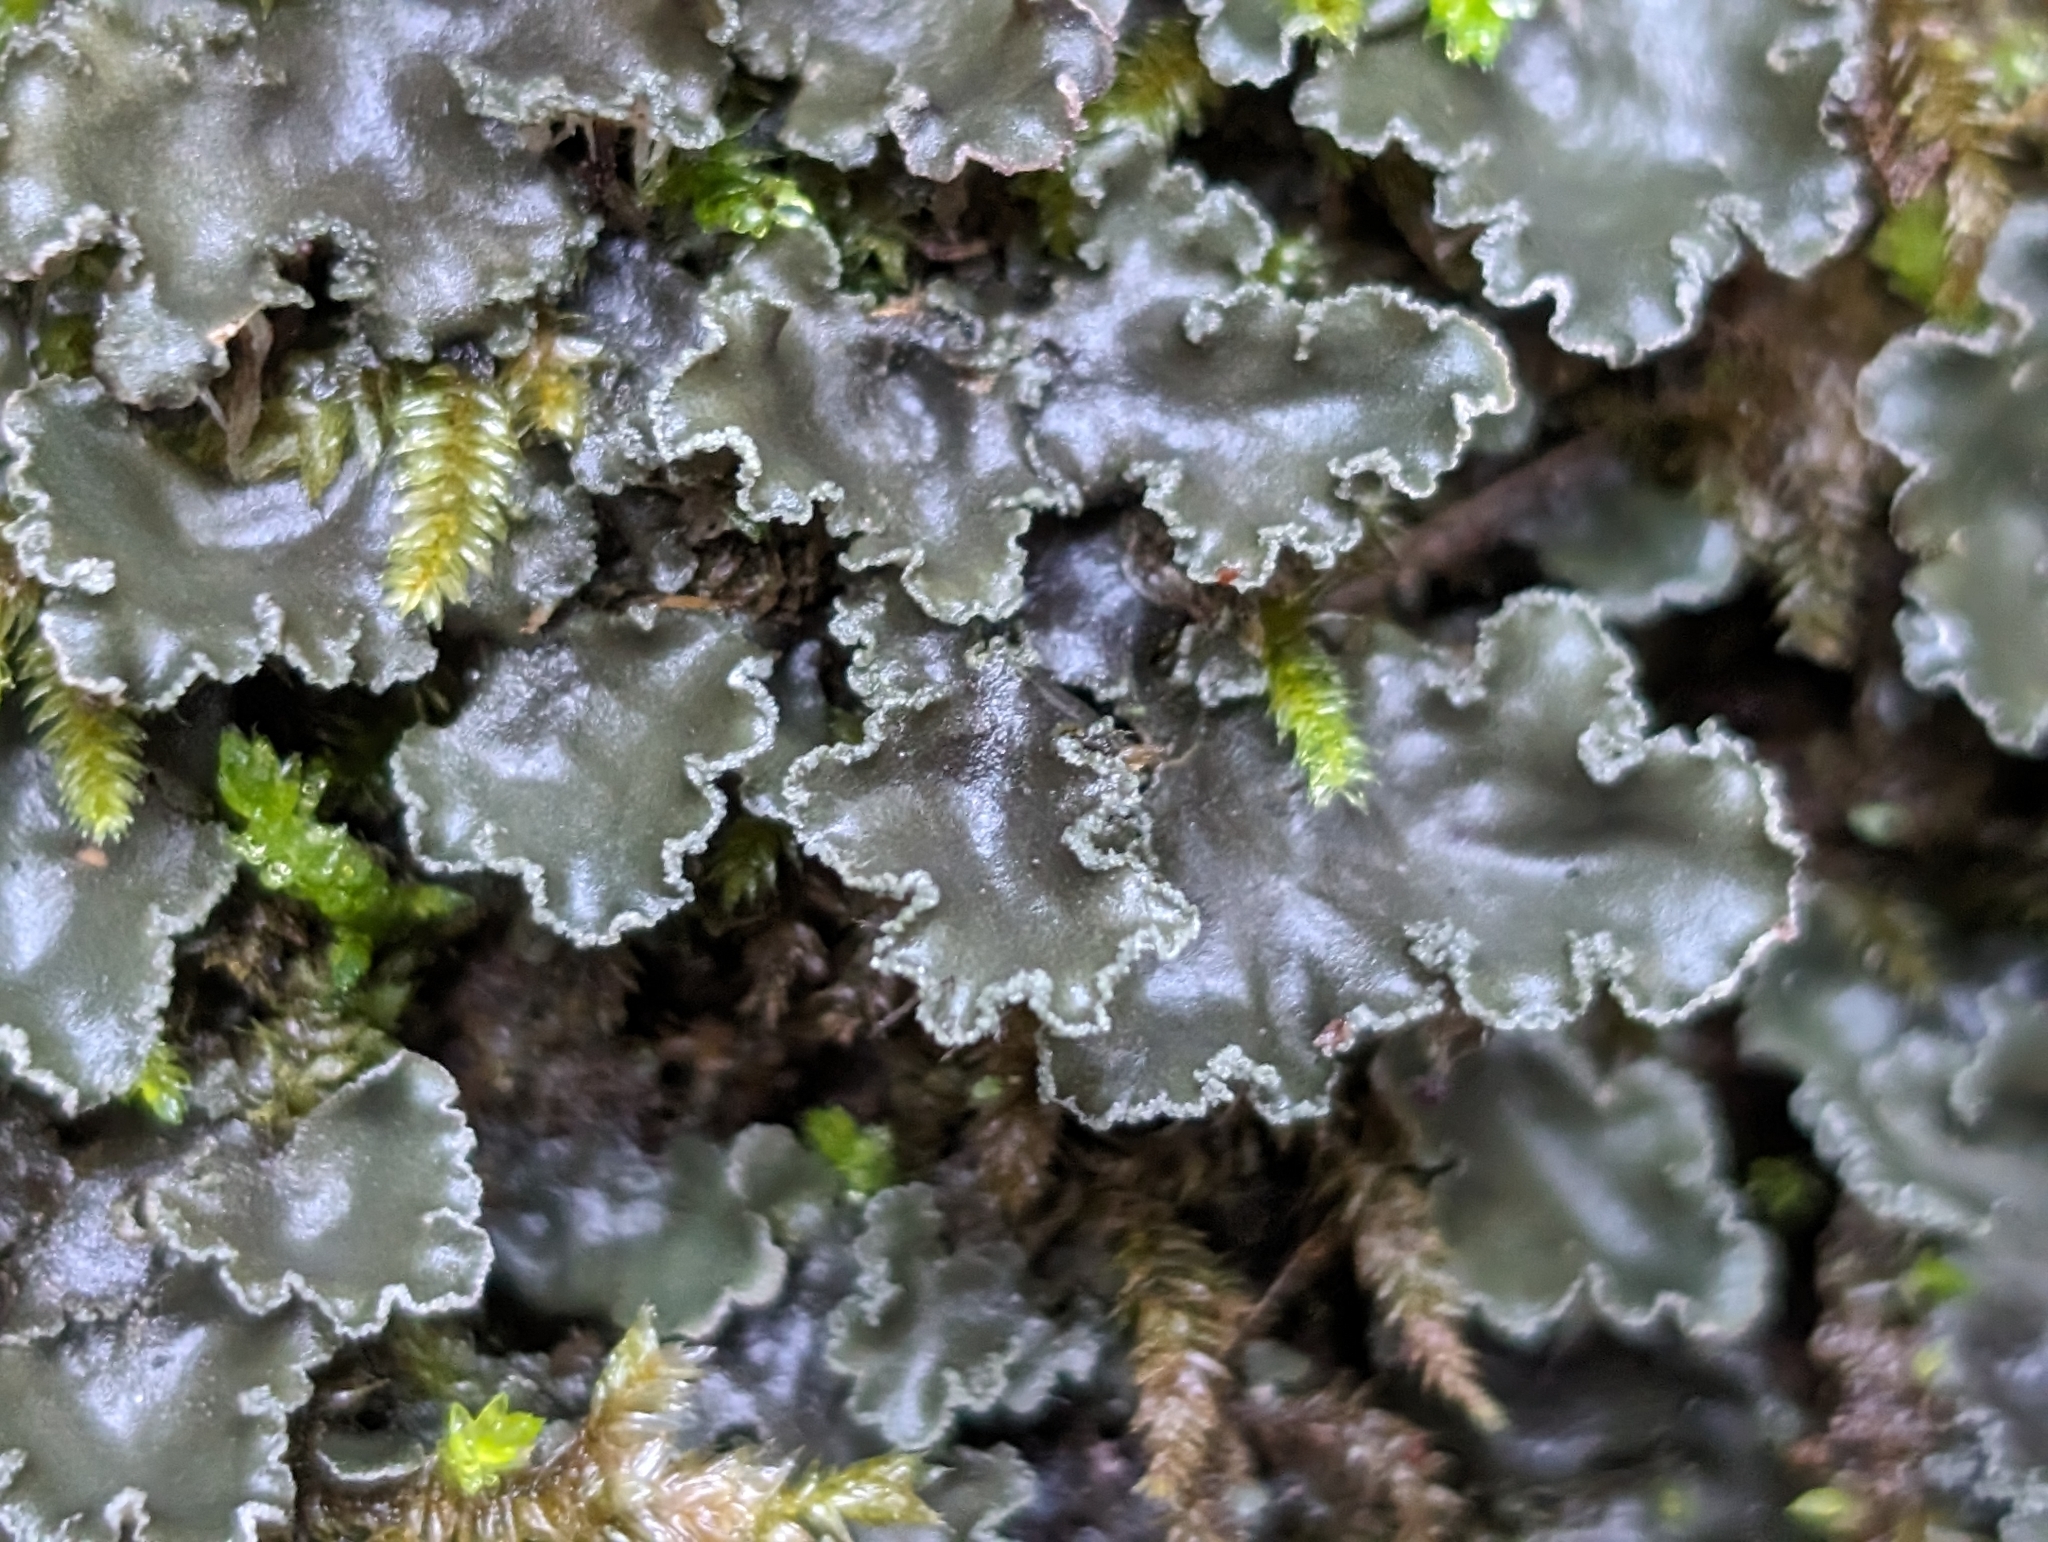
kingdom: Fungi
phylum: Ascomycota
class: Lecanoromycetes
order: Peltigerales
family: Peltigeraceae
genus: Peltigera
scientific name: Peltigera collina
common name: Gritty tree pelt lichen
